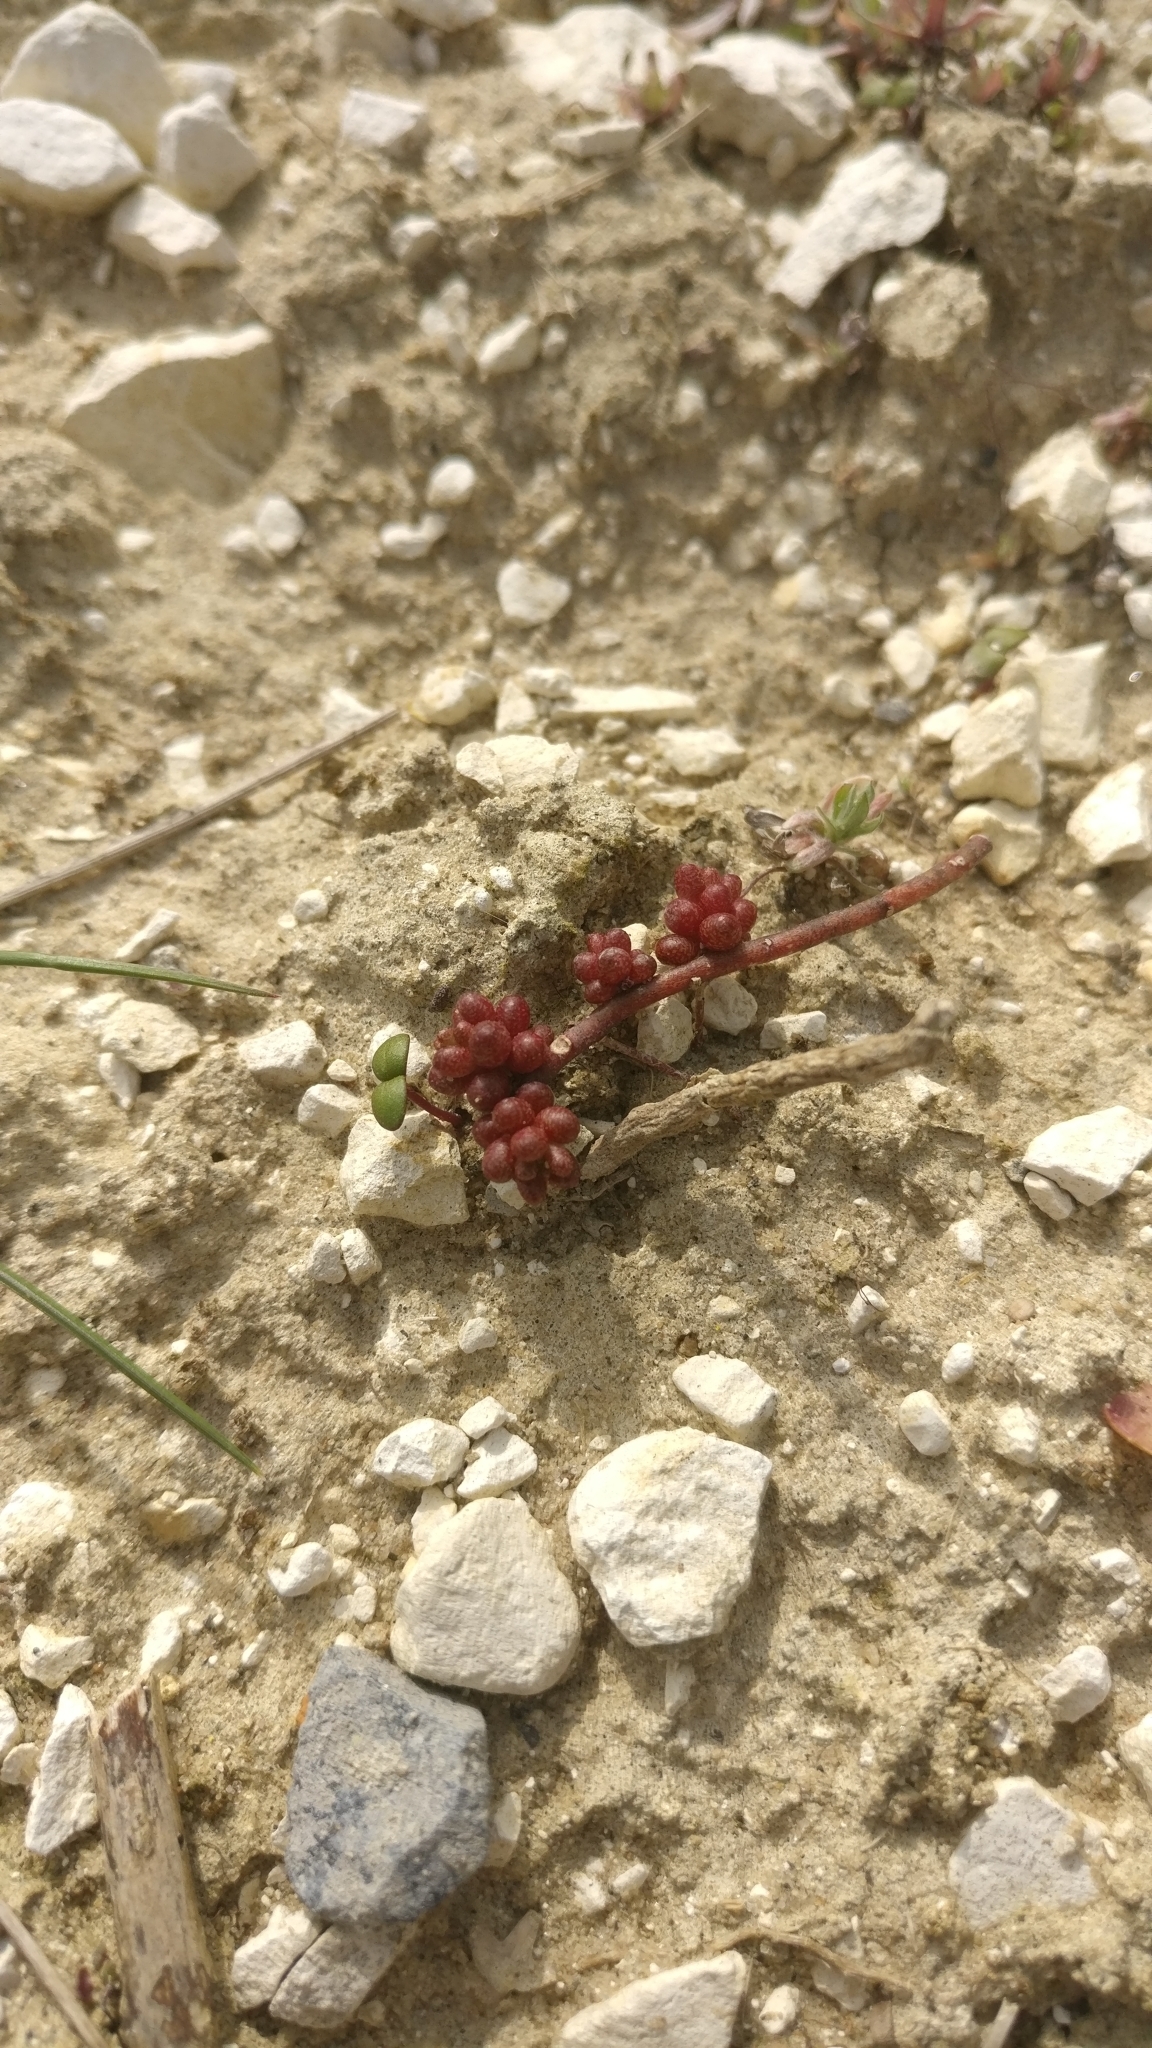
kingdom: Plantae
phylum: Tracheophyta
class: Magnoliopsida
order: Saxifragales
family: Crassulaceae
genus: Sedum
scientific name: Sedum album
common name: White stonecrop
